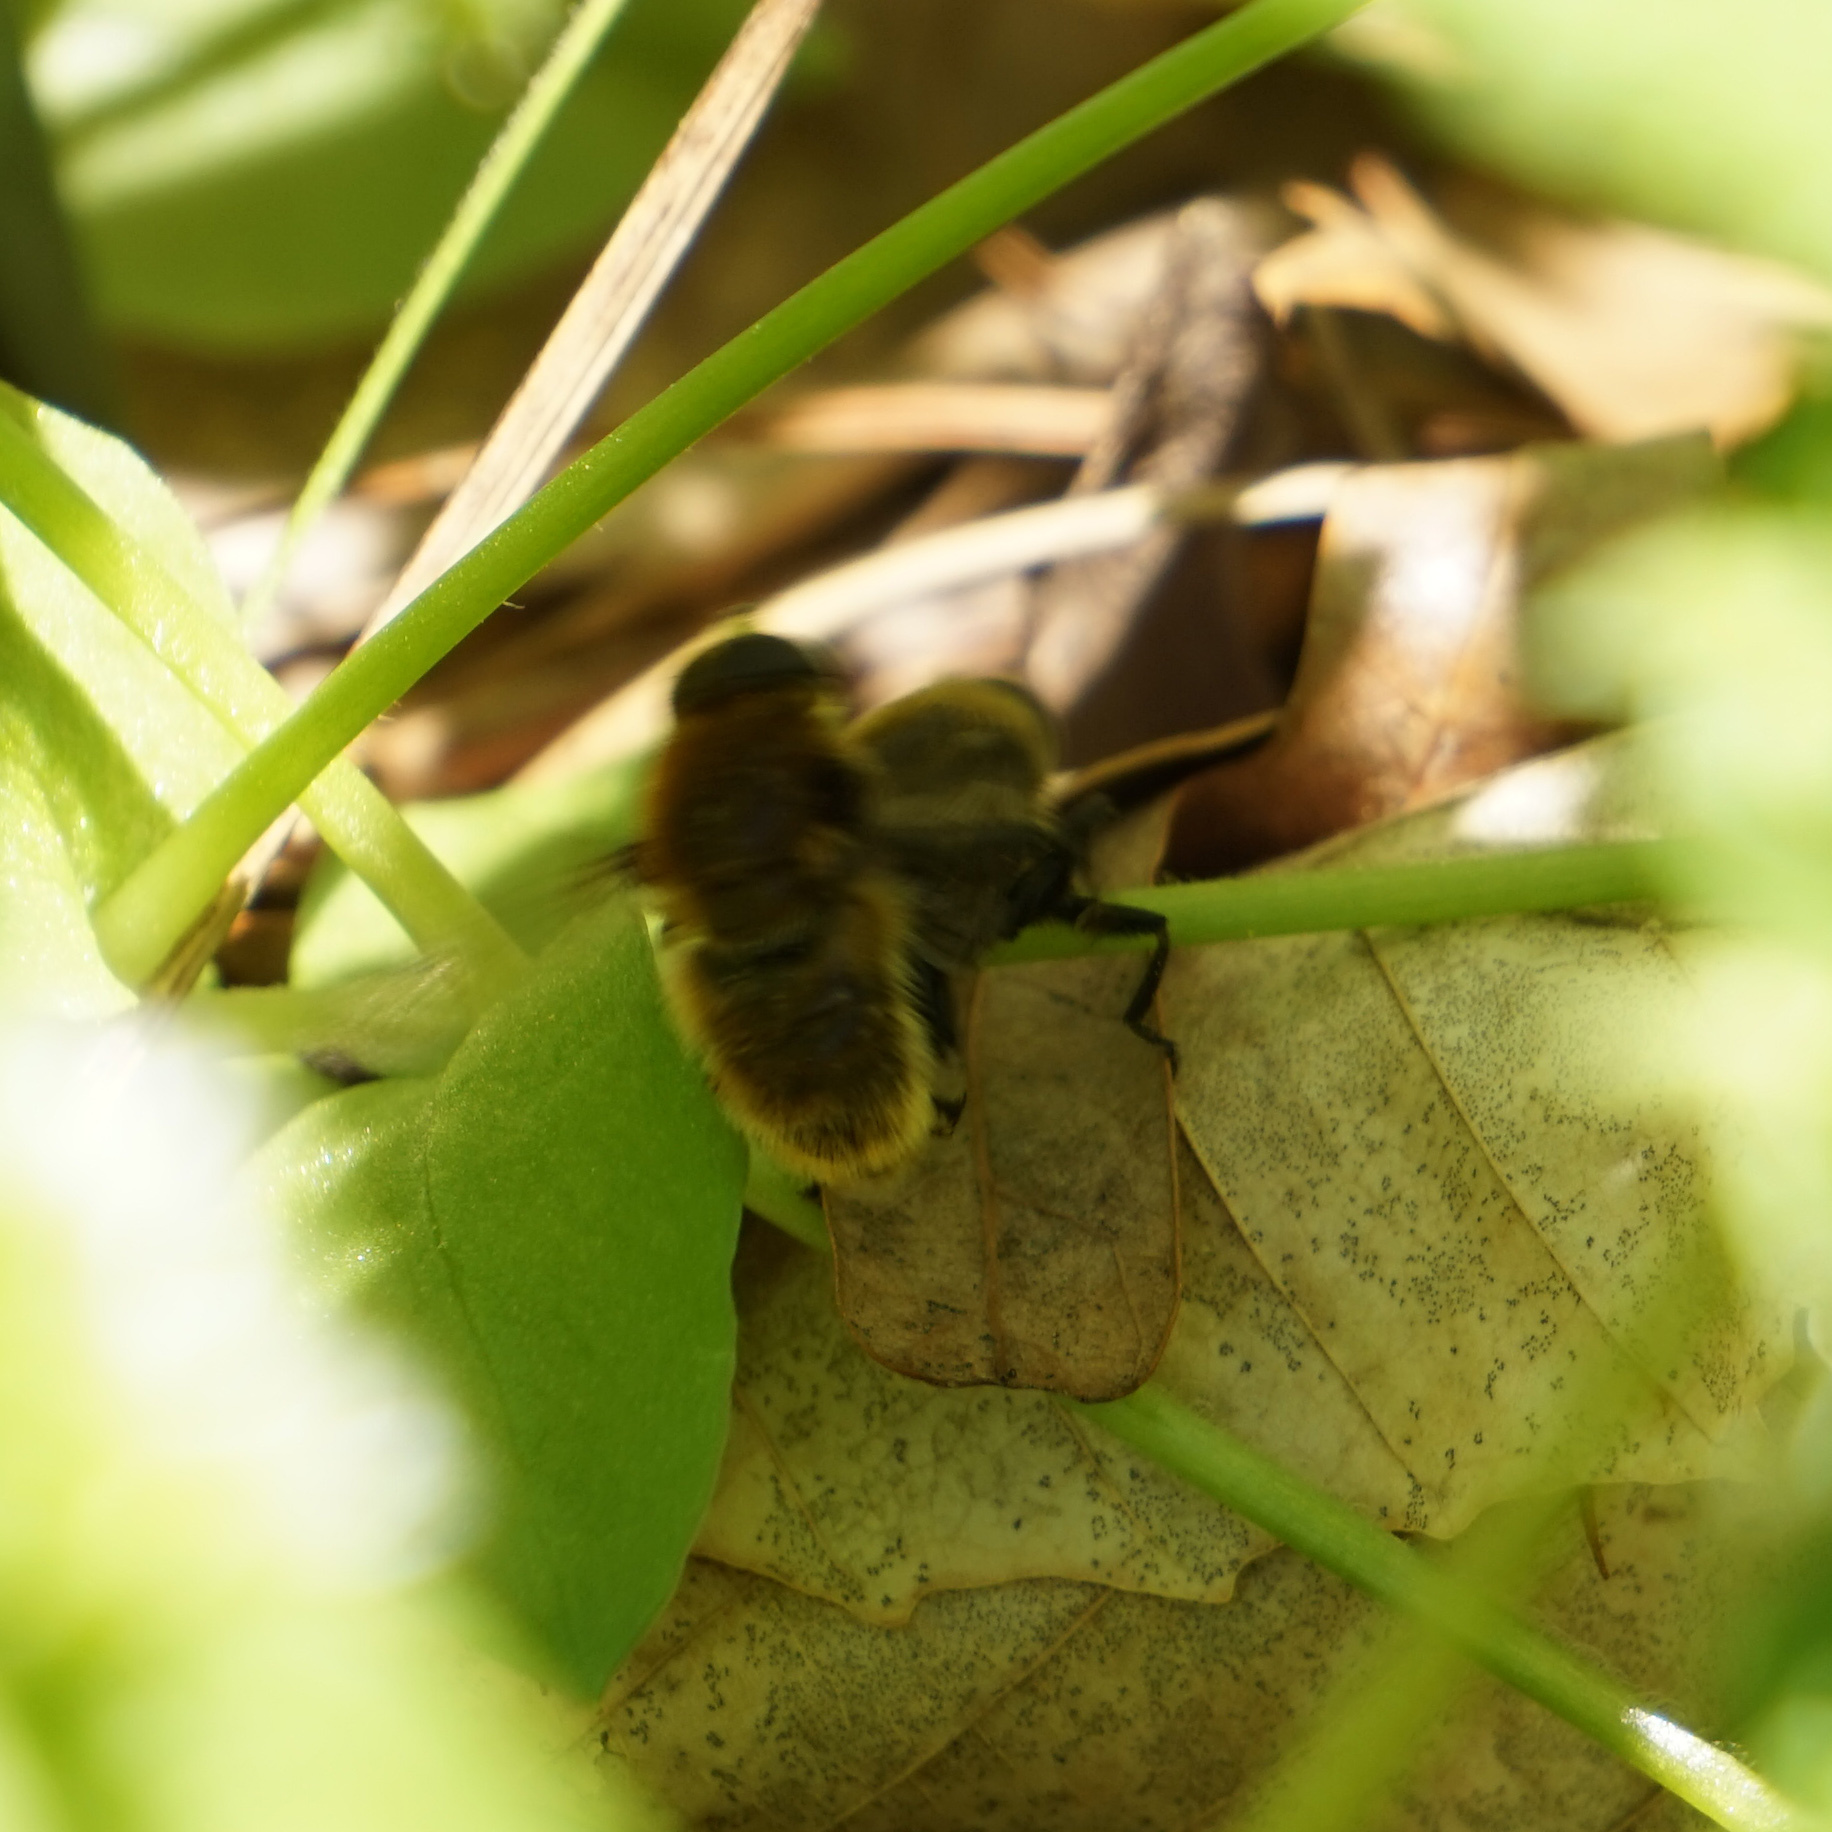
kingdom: Animalia
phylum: Arthropoda
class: Insecta
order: Diptera
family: Syrphidae
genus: Merodon
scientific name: Merodon equestris
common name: Greater bulb-fly
